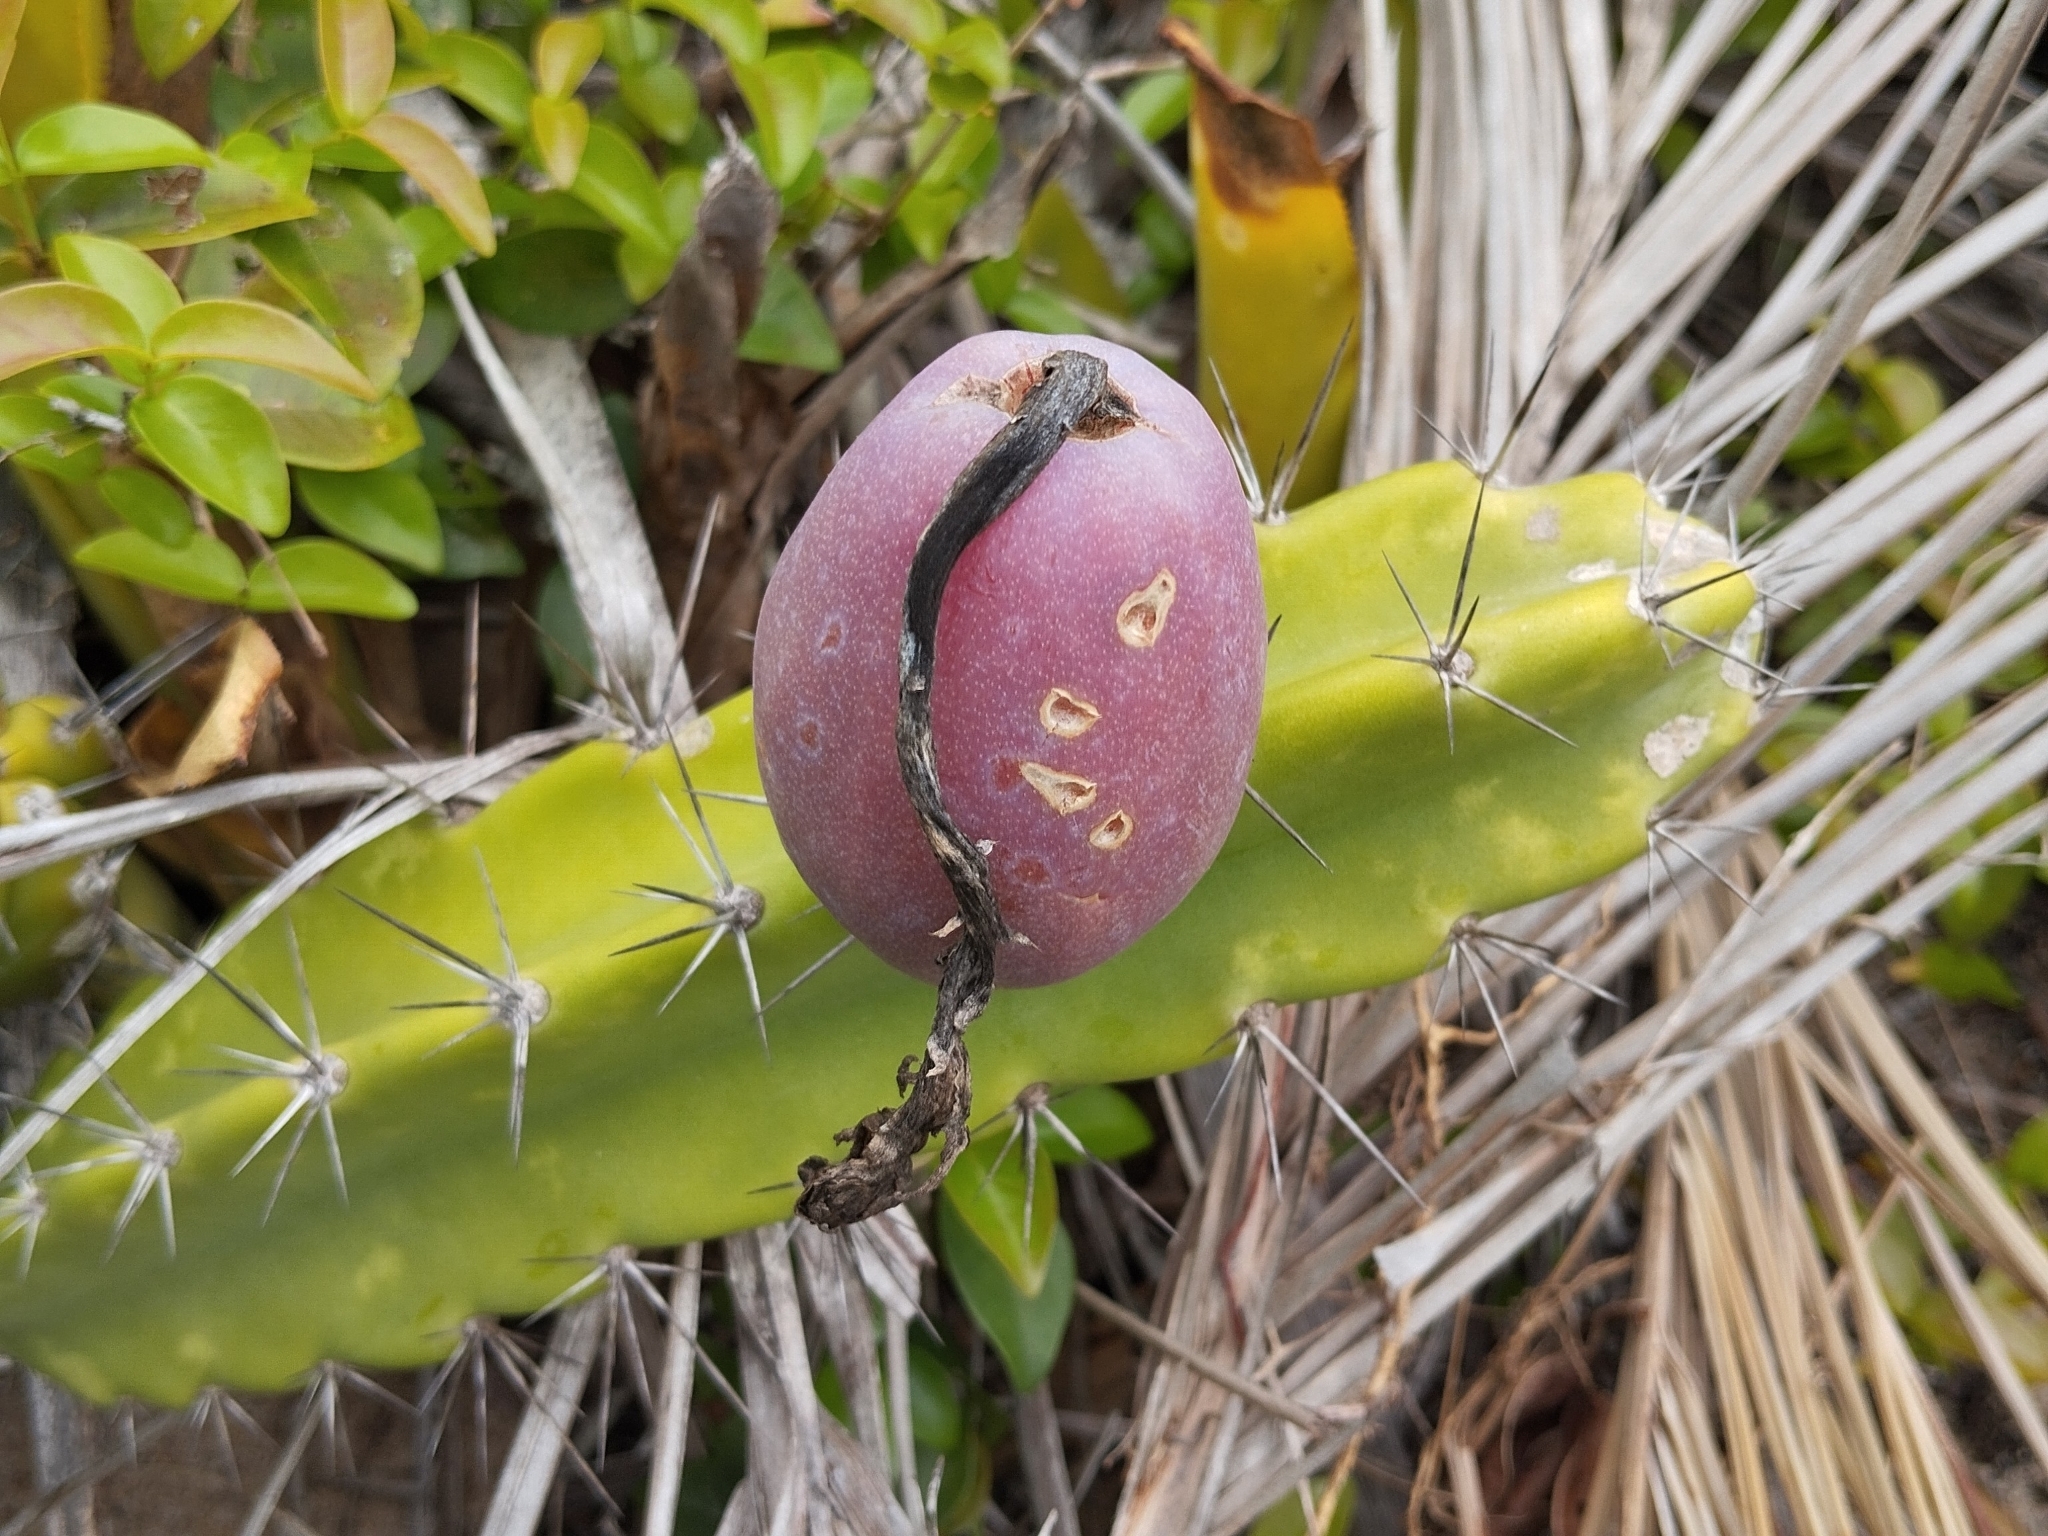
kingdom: Plantae
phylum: Tracheophyta
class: Magnoliopsida
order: Caryophyllales
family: Cactaceae
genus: Cereus
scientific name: Cereus fernambucensis
